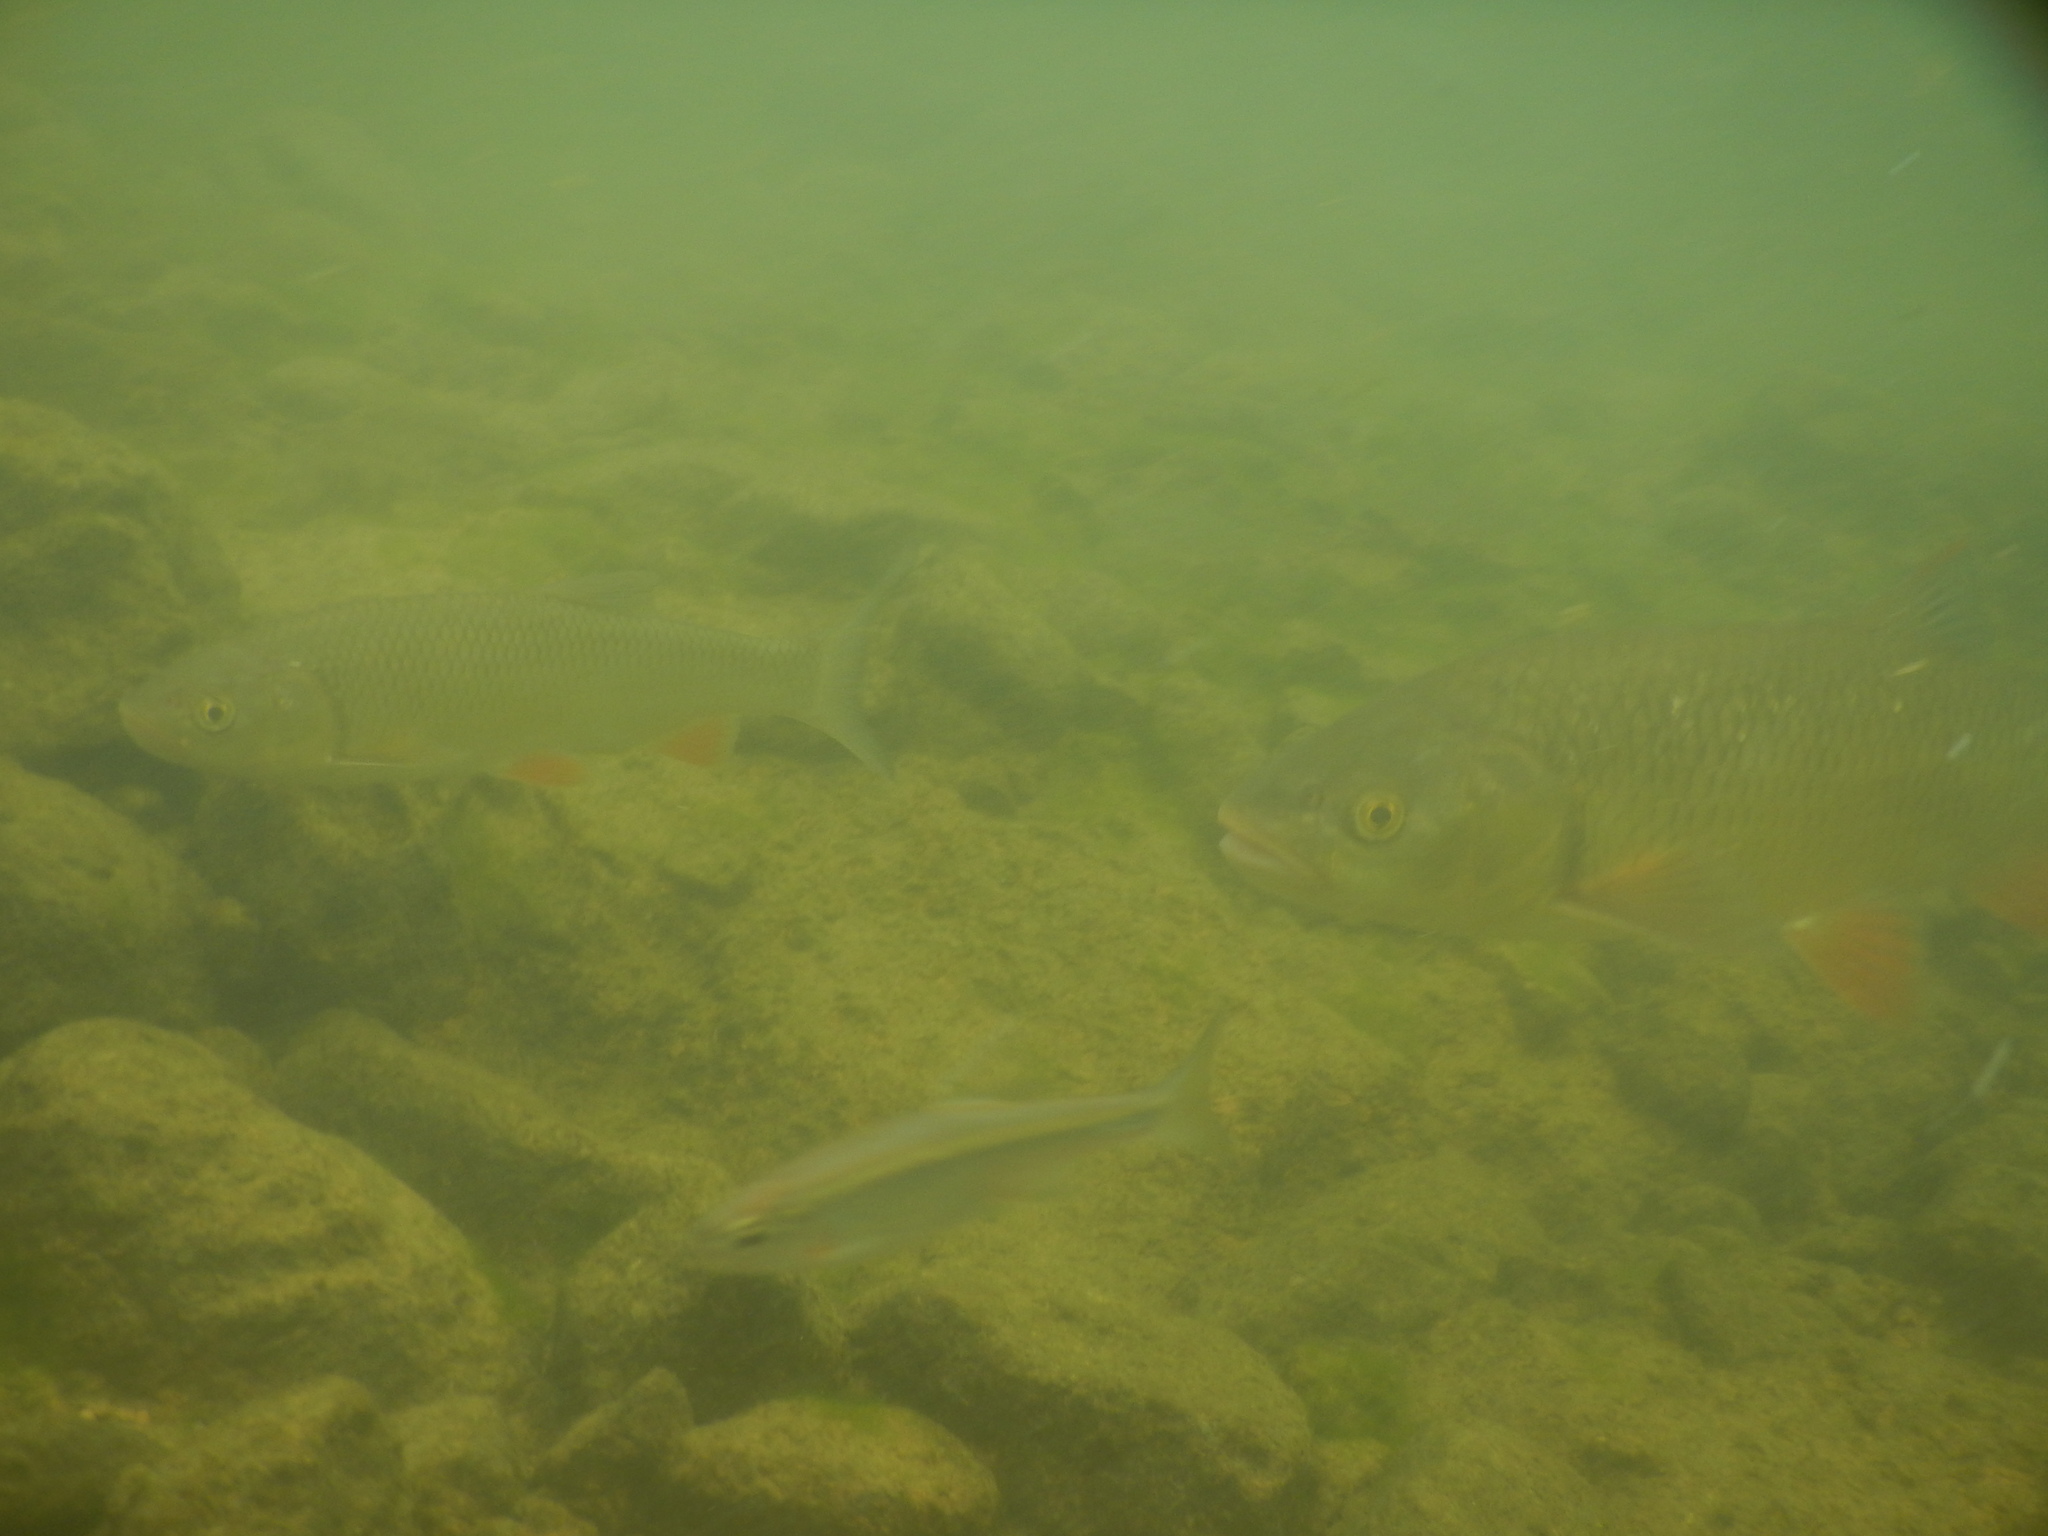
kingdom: Animalia
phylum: Chordata
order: Cypriniformes
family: Cyprinidae
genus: Squalius
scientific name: Squalius cephalus
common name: Chub
